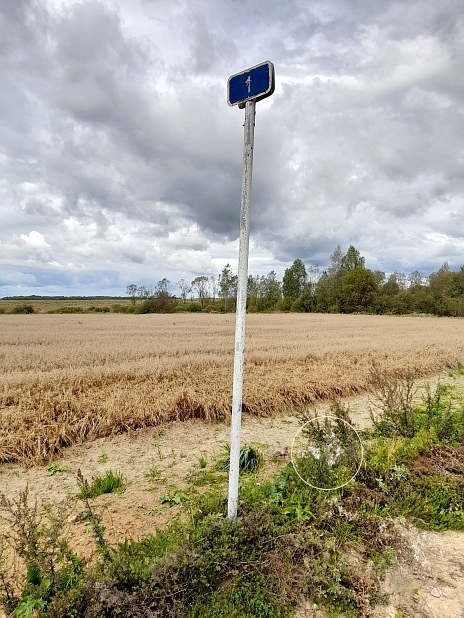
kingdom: Plantae
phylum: Tracheophyta
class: Magnoliopsida
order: Myrtales
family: Onagraceae
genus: Chamaenerion
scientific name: Chamaenerion angustifolium
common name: Fireweed
